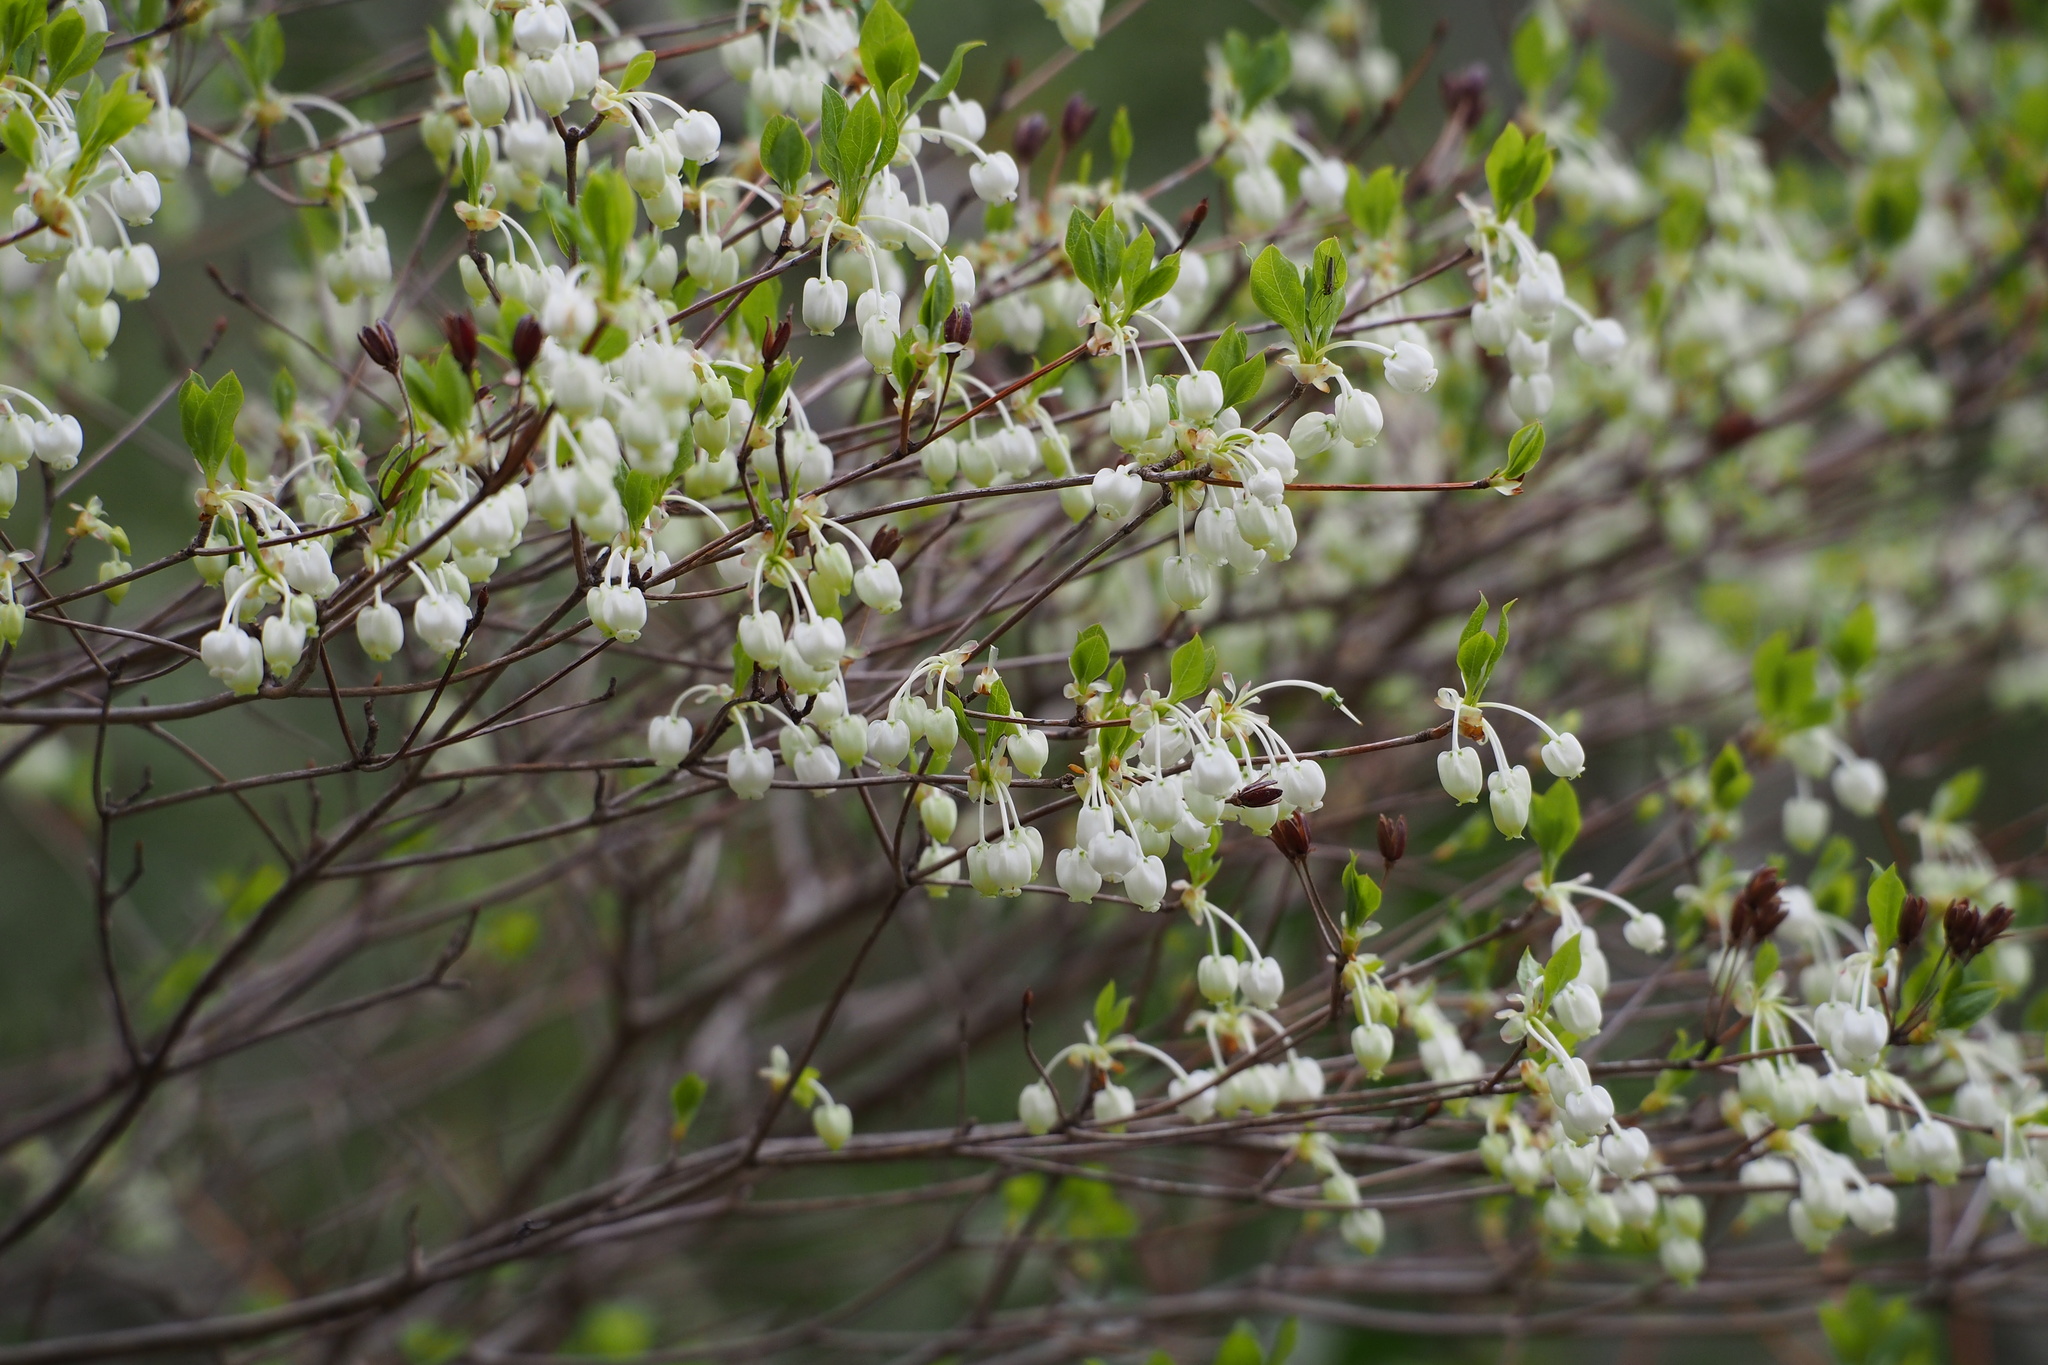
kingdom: Plantae
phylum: Tracheophyta
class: Magnoliopsida
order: Ericales
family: Ericaceae
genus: Enkianthus
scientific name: Enkianthus perulatus
